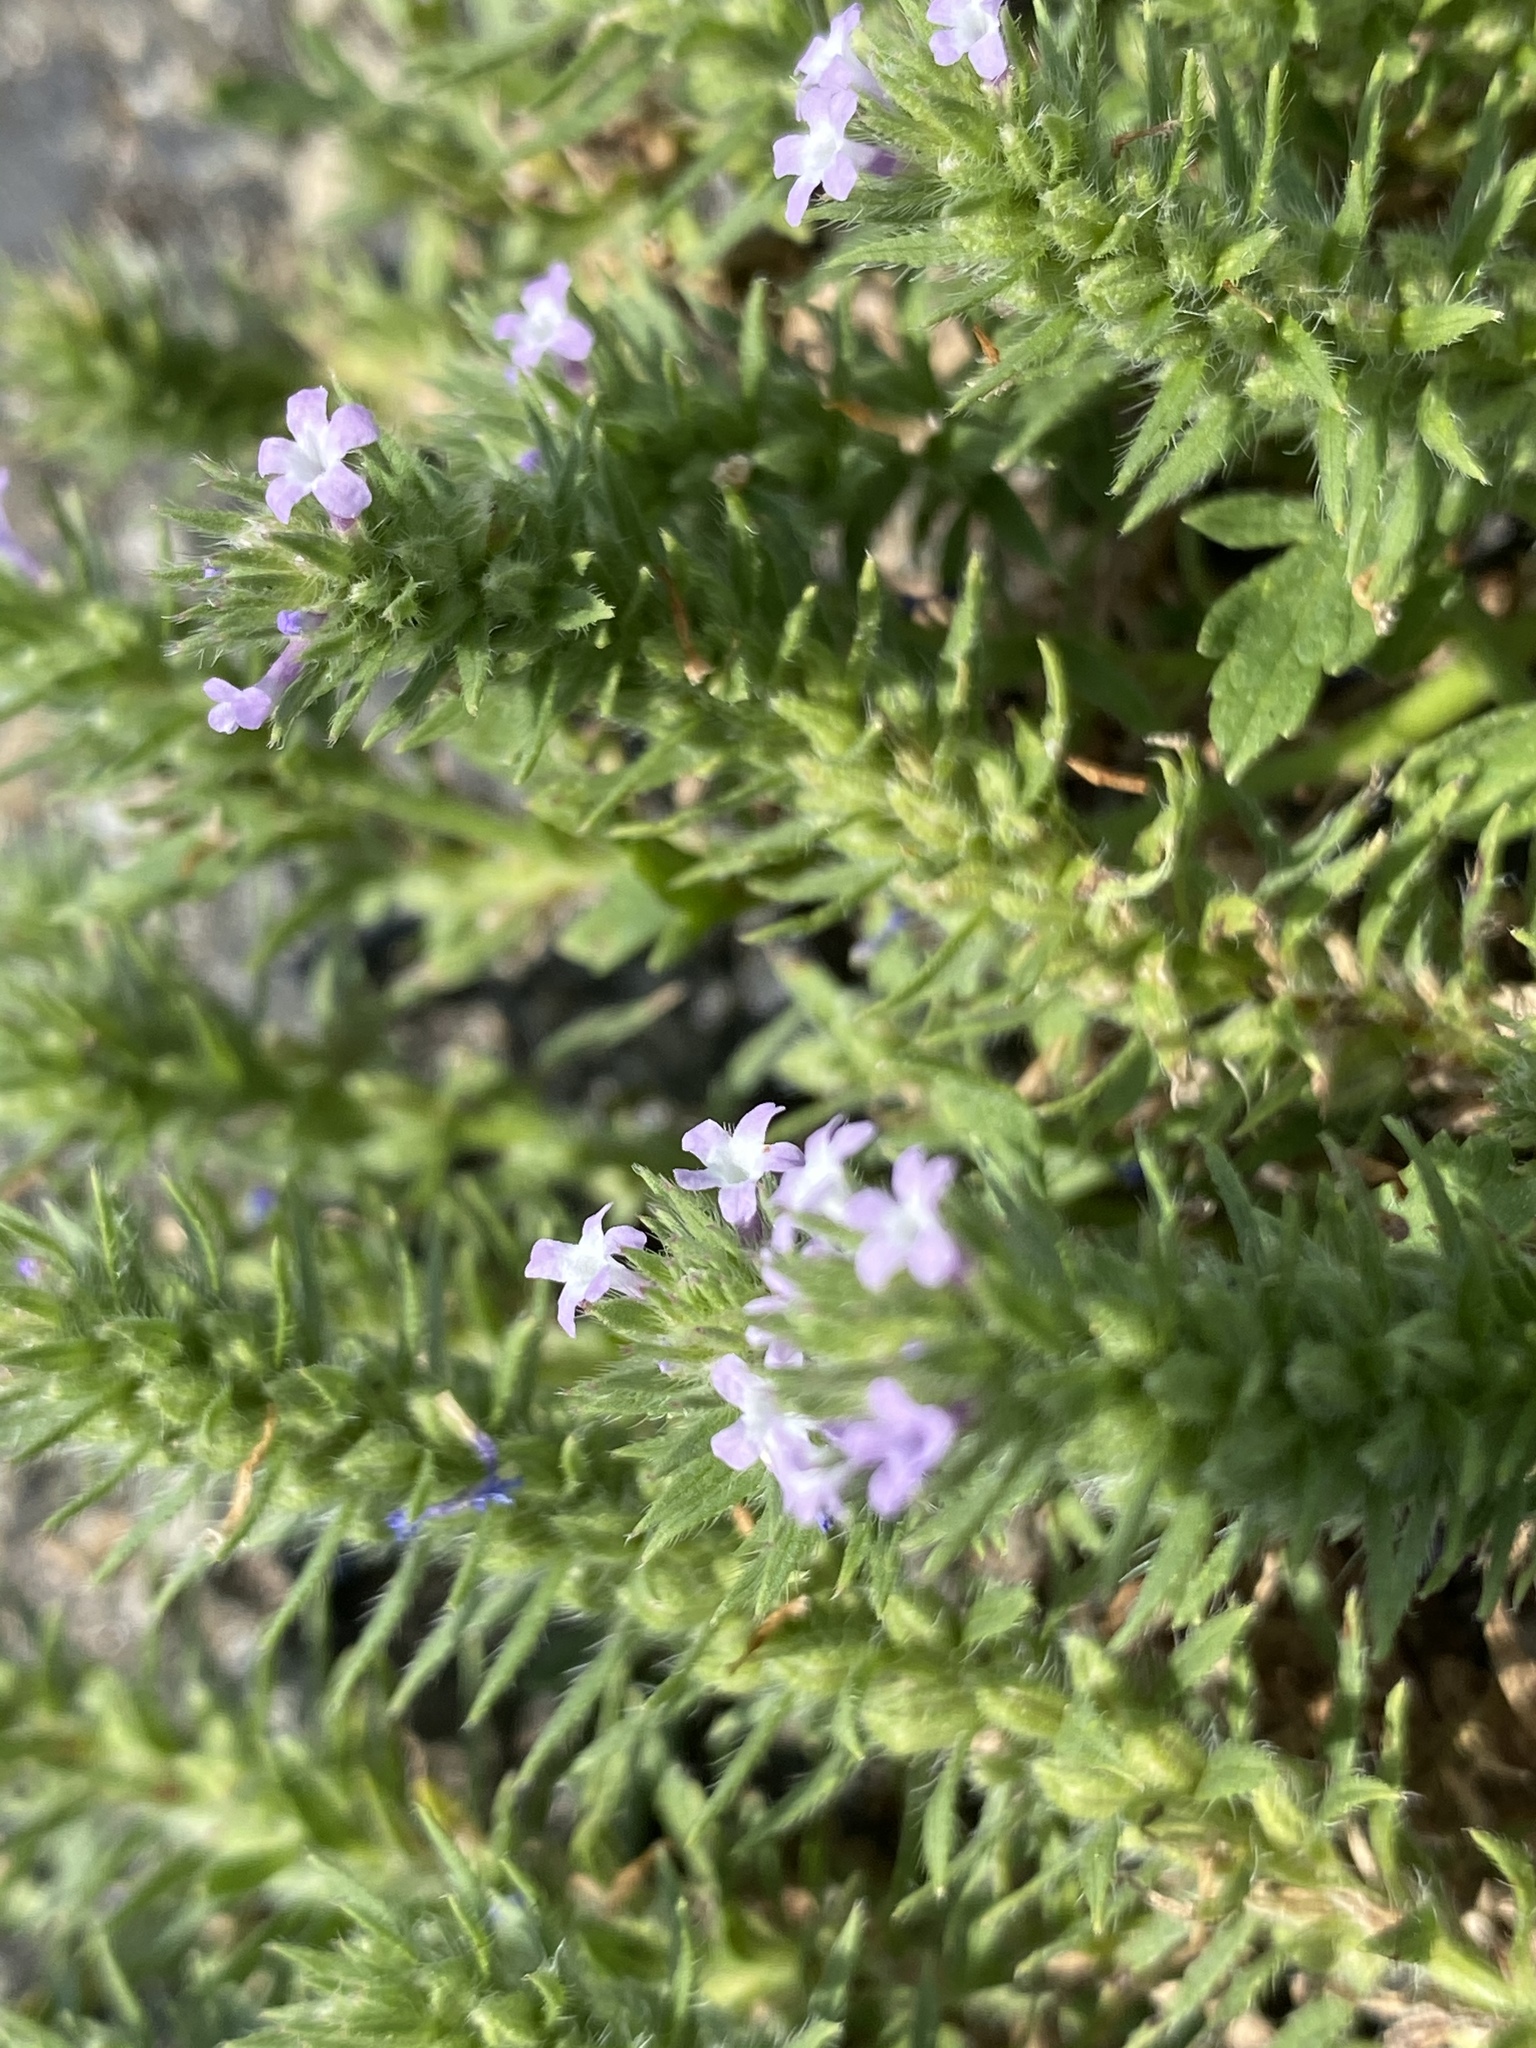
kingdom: Plantae
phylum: Tracheophyta
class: Magnoliopsida
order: Lamiales
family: Verbenaceae
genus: Verbena
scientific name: Verbena bracteata
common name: Bracted vervain
